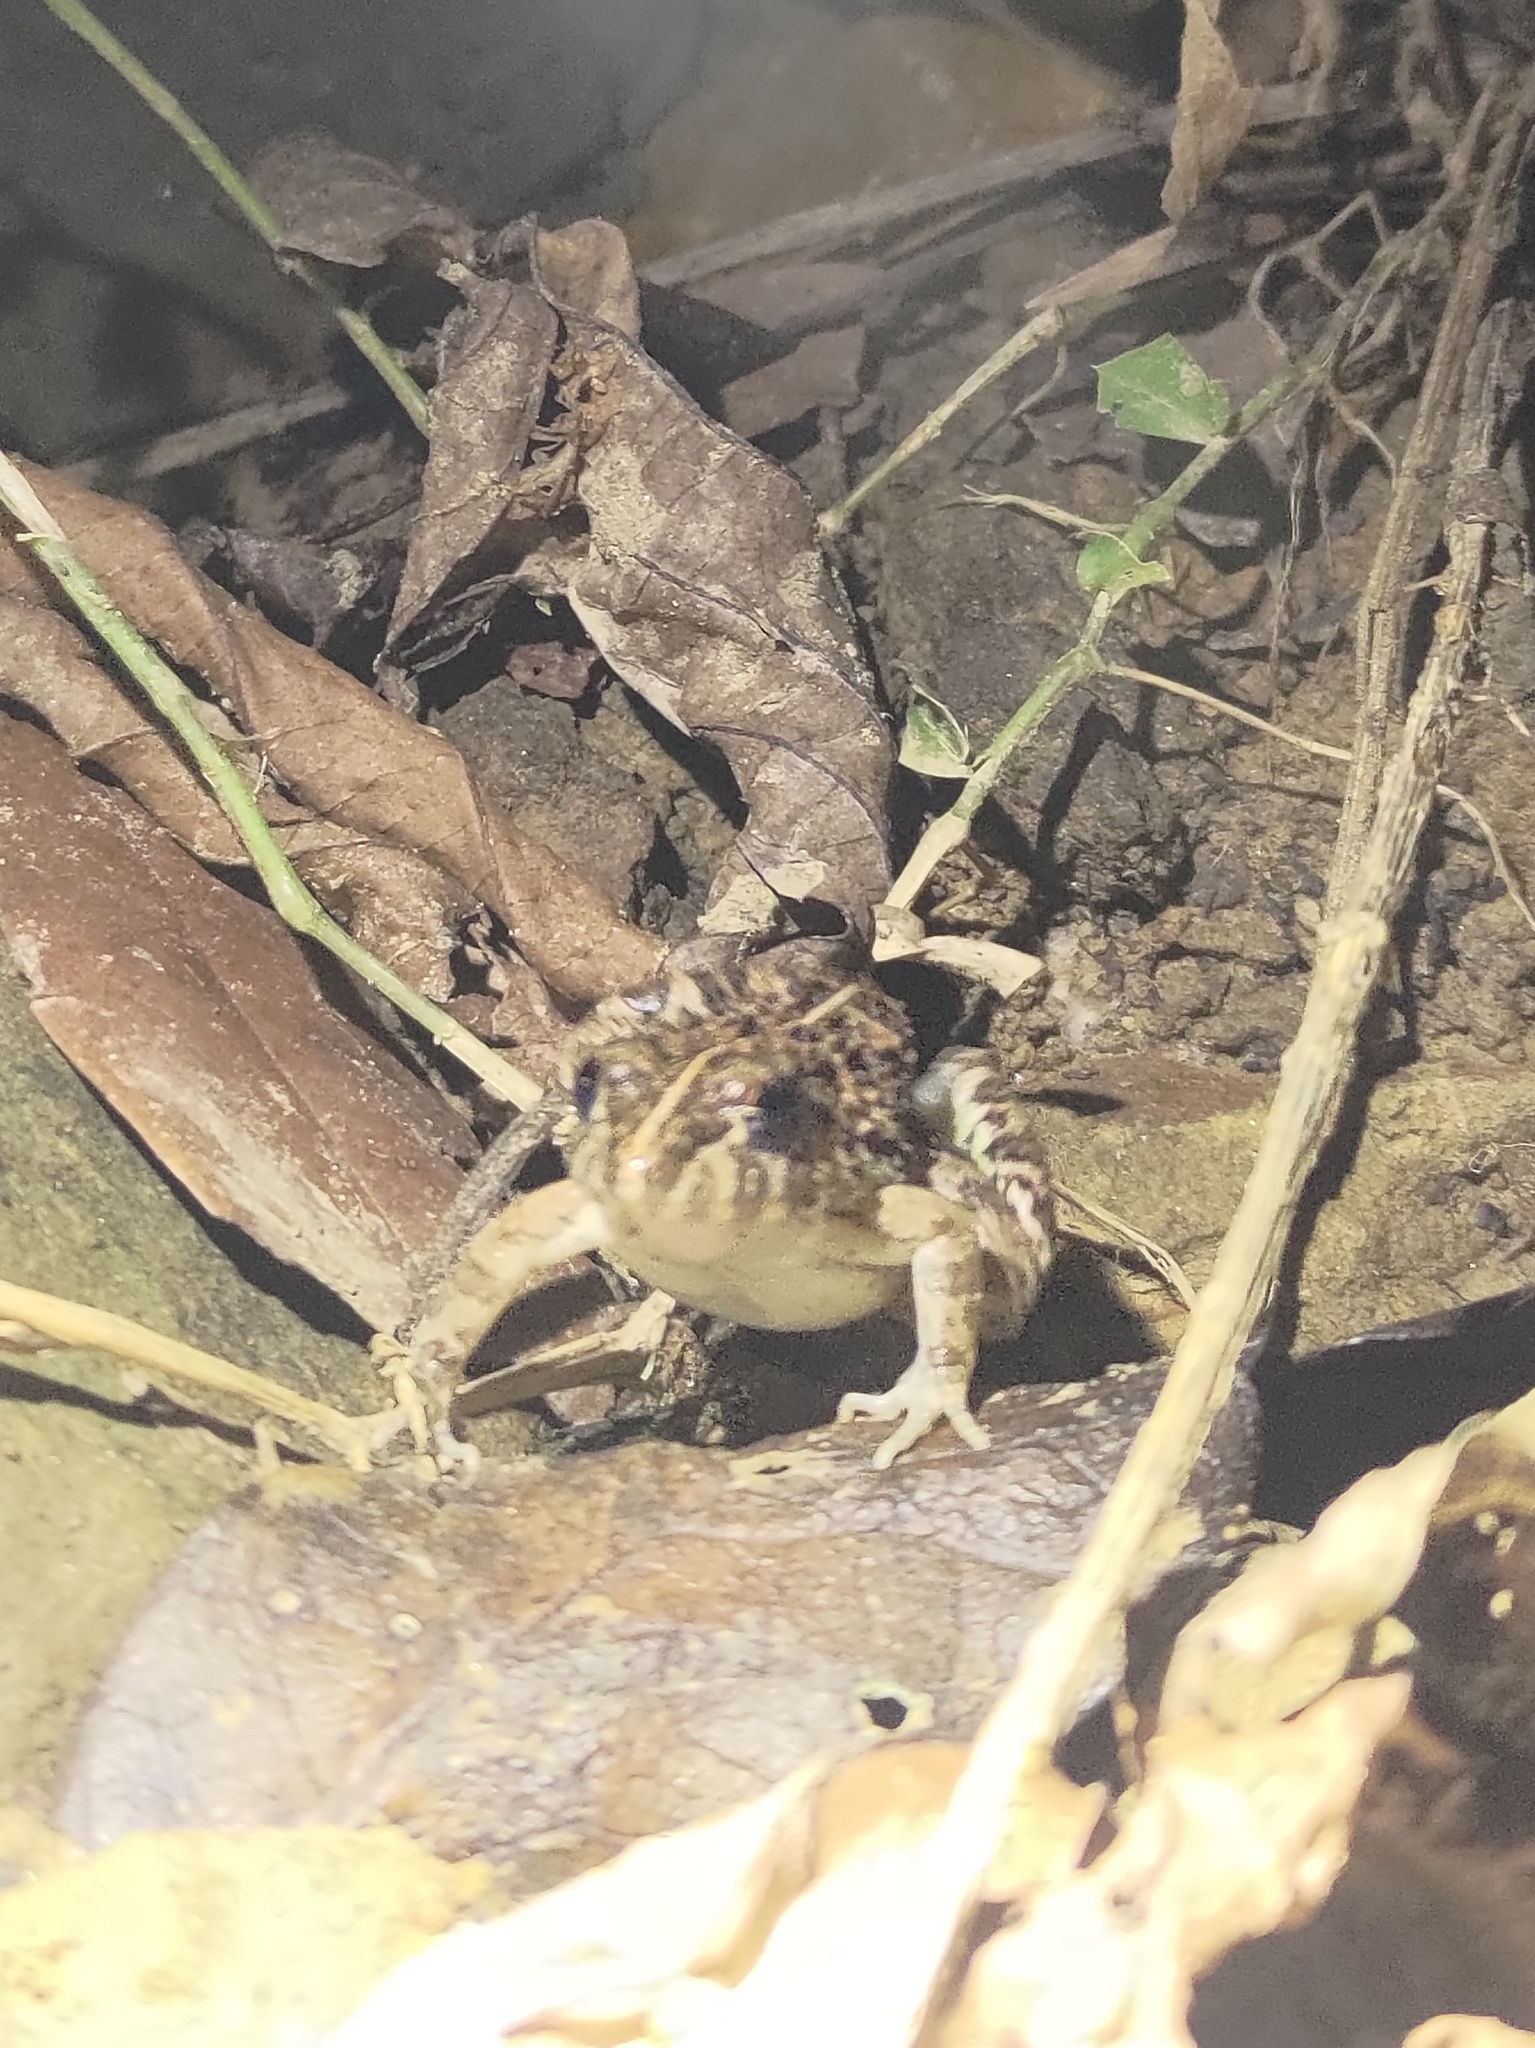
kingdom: Animalia
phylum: Chordata
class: Amphibia
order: Anura
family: Dicroglossidae
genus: Fejervarya
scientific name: Fejervarya limnocharis
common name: Asian grass frog/common pond frog/field frog/grass frog/indian rice frog
